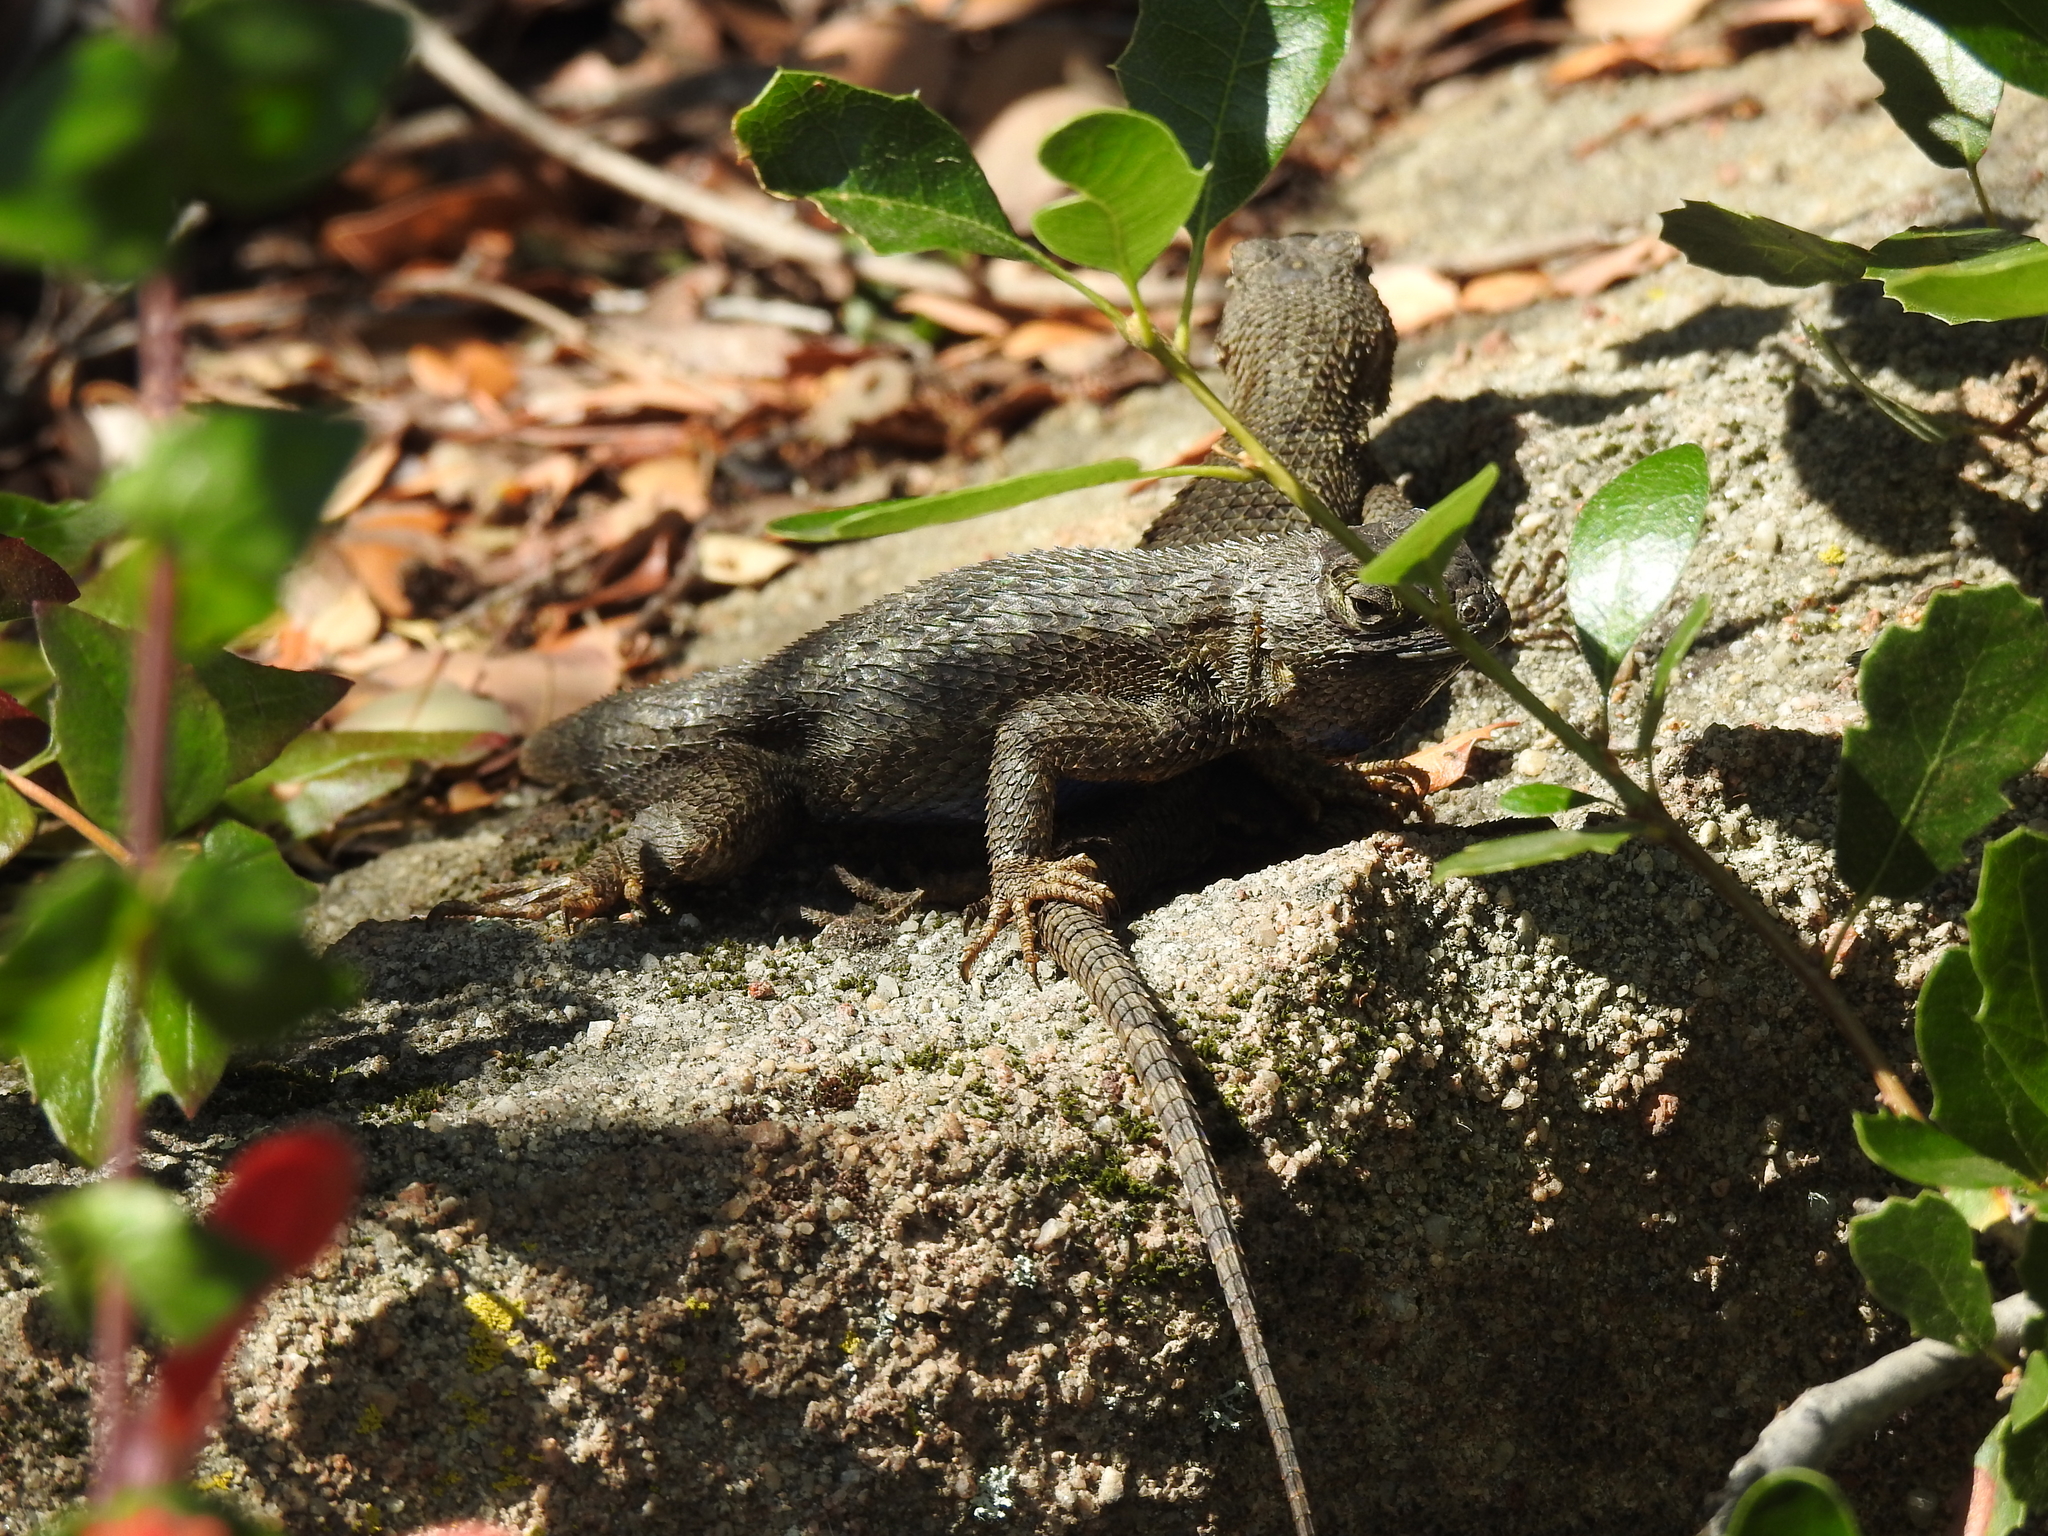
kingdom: Animalia
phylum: Chordata
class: Squamata
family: Phrynosomatidae
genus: Sceloporus
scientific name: Sceloporus occidentalis
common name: Western fence lizard
